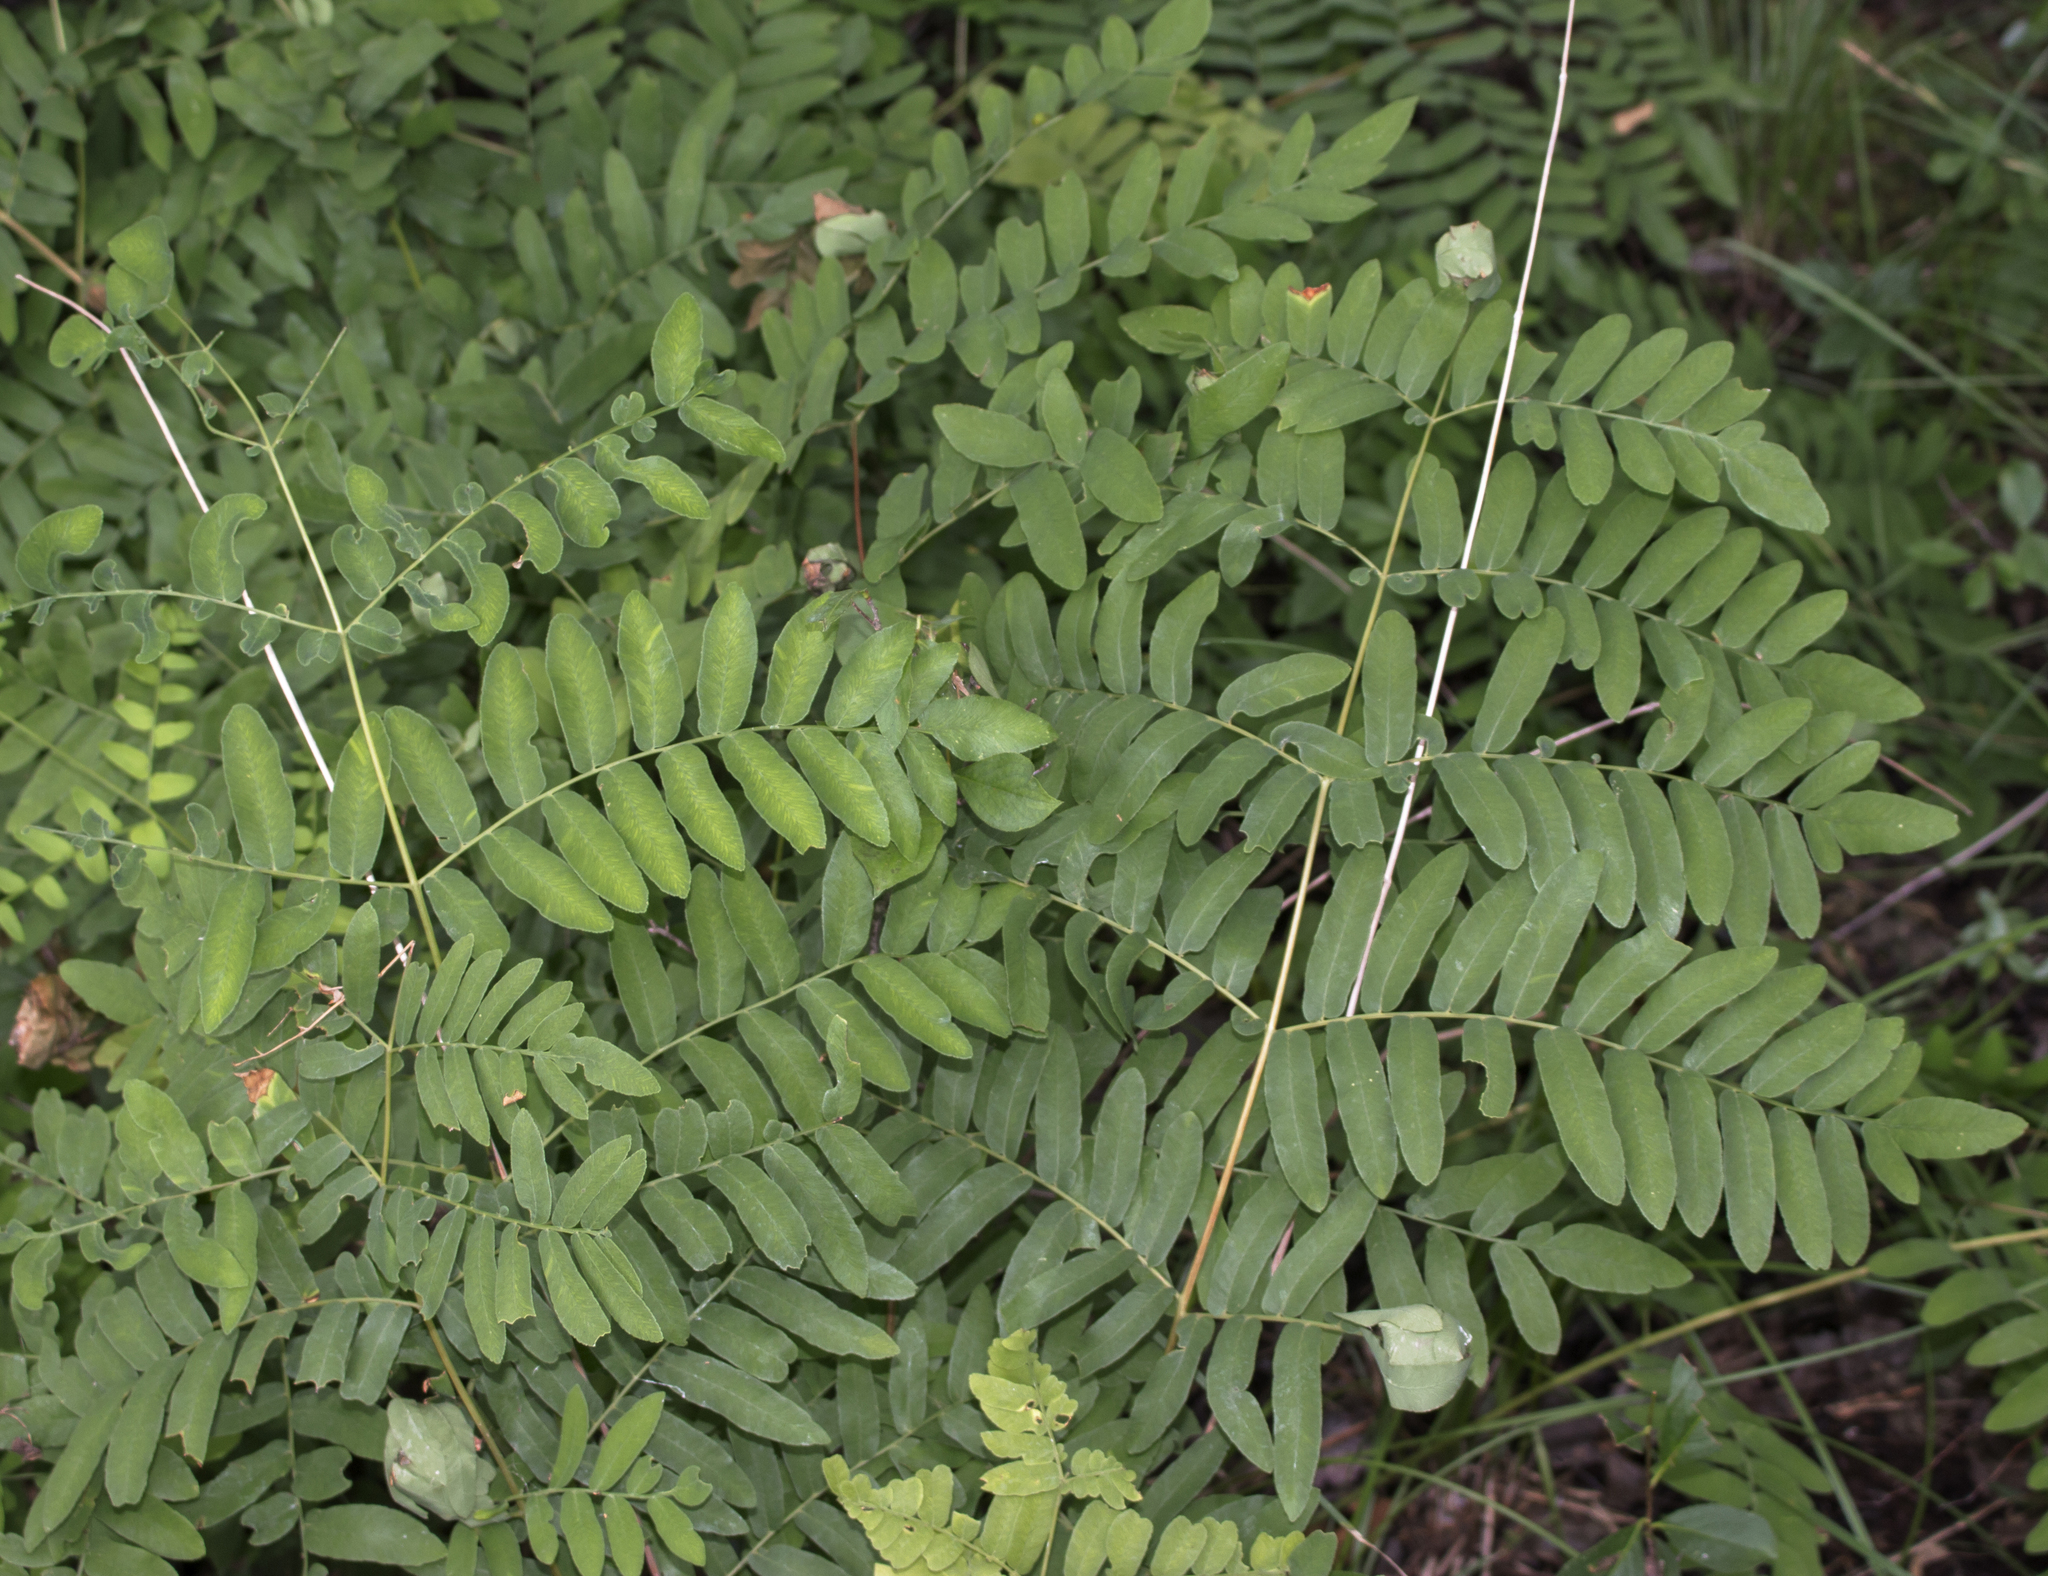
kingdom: Plantae
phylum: Tracheophyta
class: Polypodiopsida
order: Osmundales
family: Osmundaceae
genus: Osmunda
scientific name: Osmunda spectabilis
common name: American royal fern
